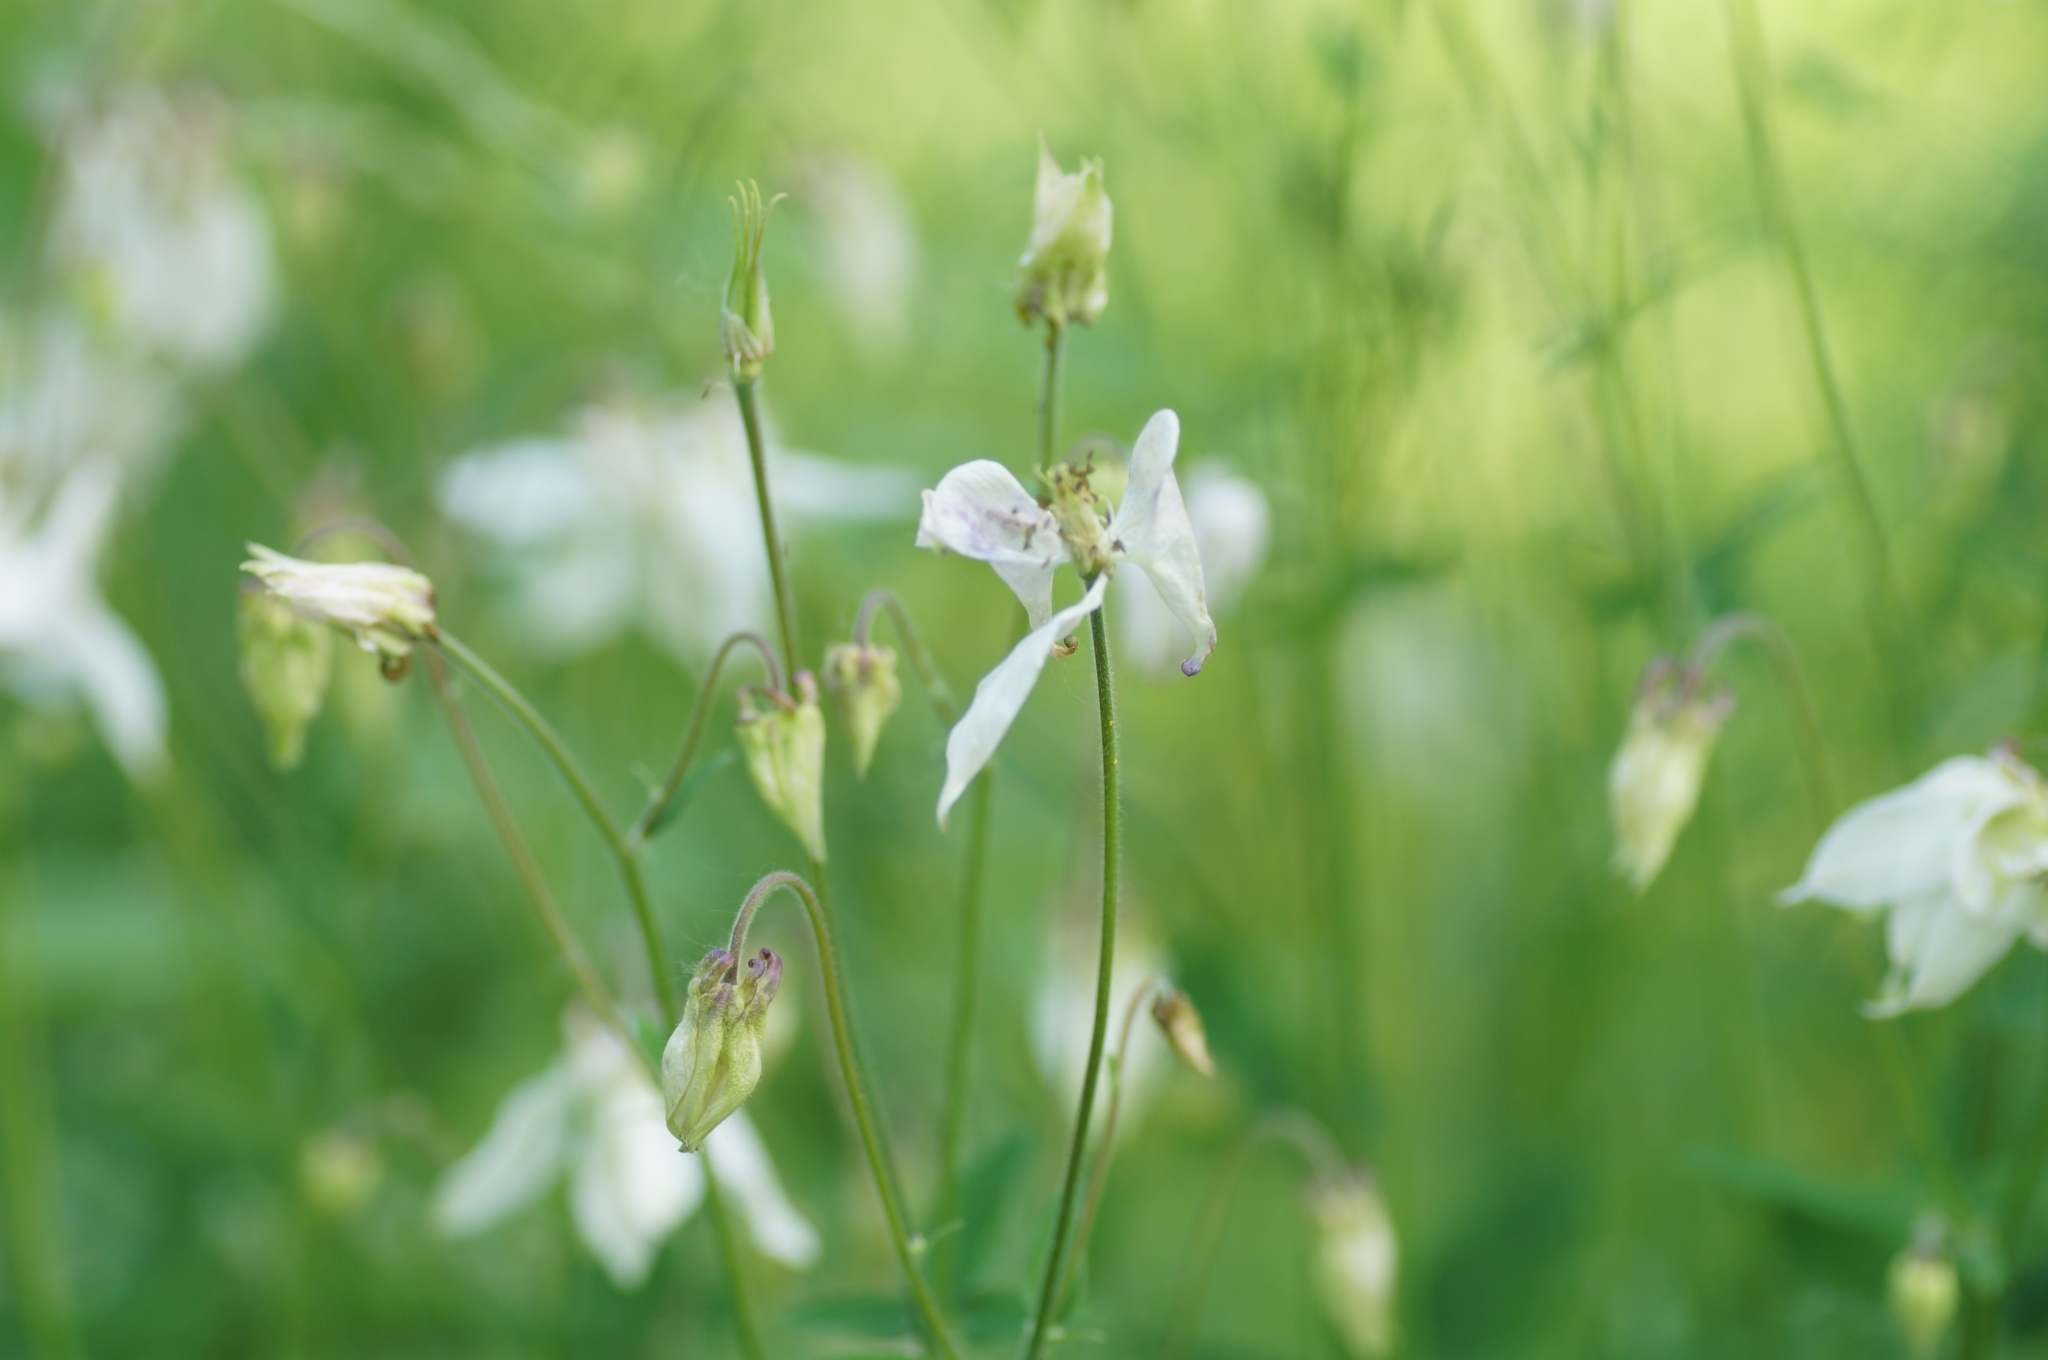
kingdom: Plantae
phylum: Tracheophyta
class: Magnoliopsida
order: Ranunculales
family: Ranunculaceae
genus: Aquilegia
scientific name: Aquilegia vulgaris
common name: Columbine
